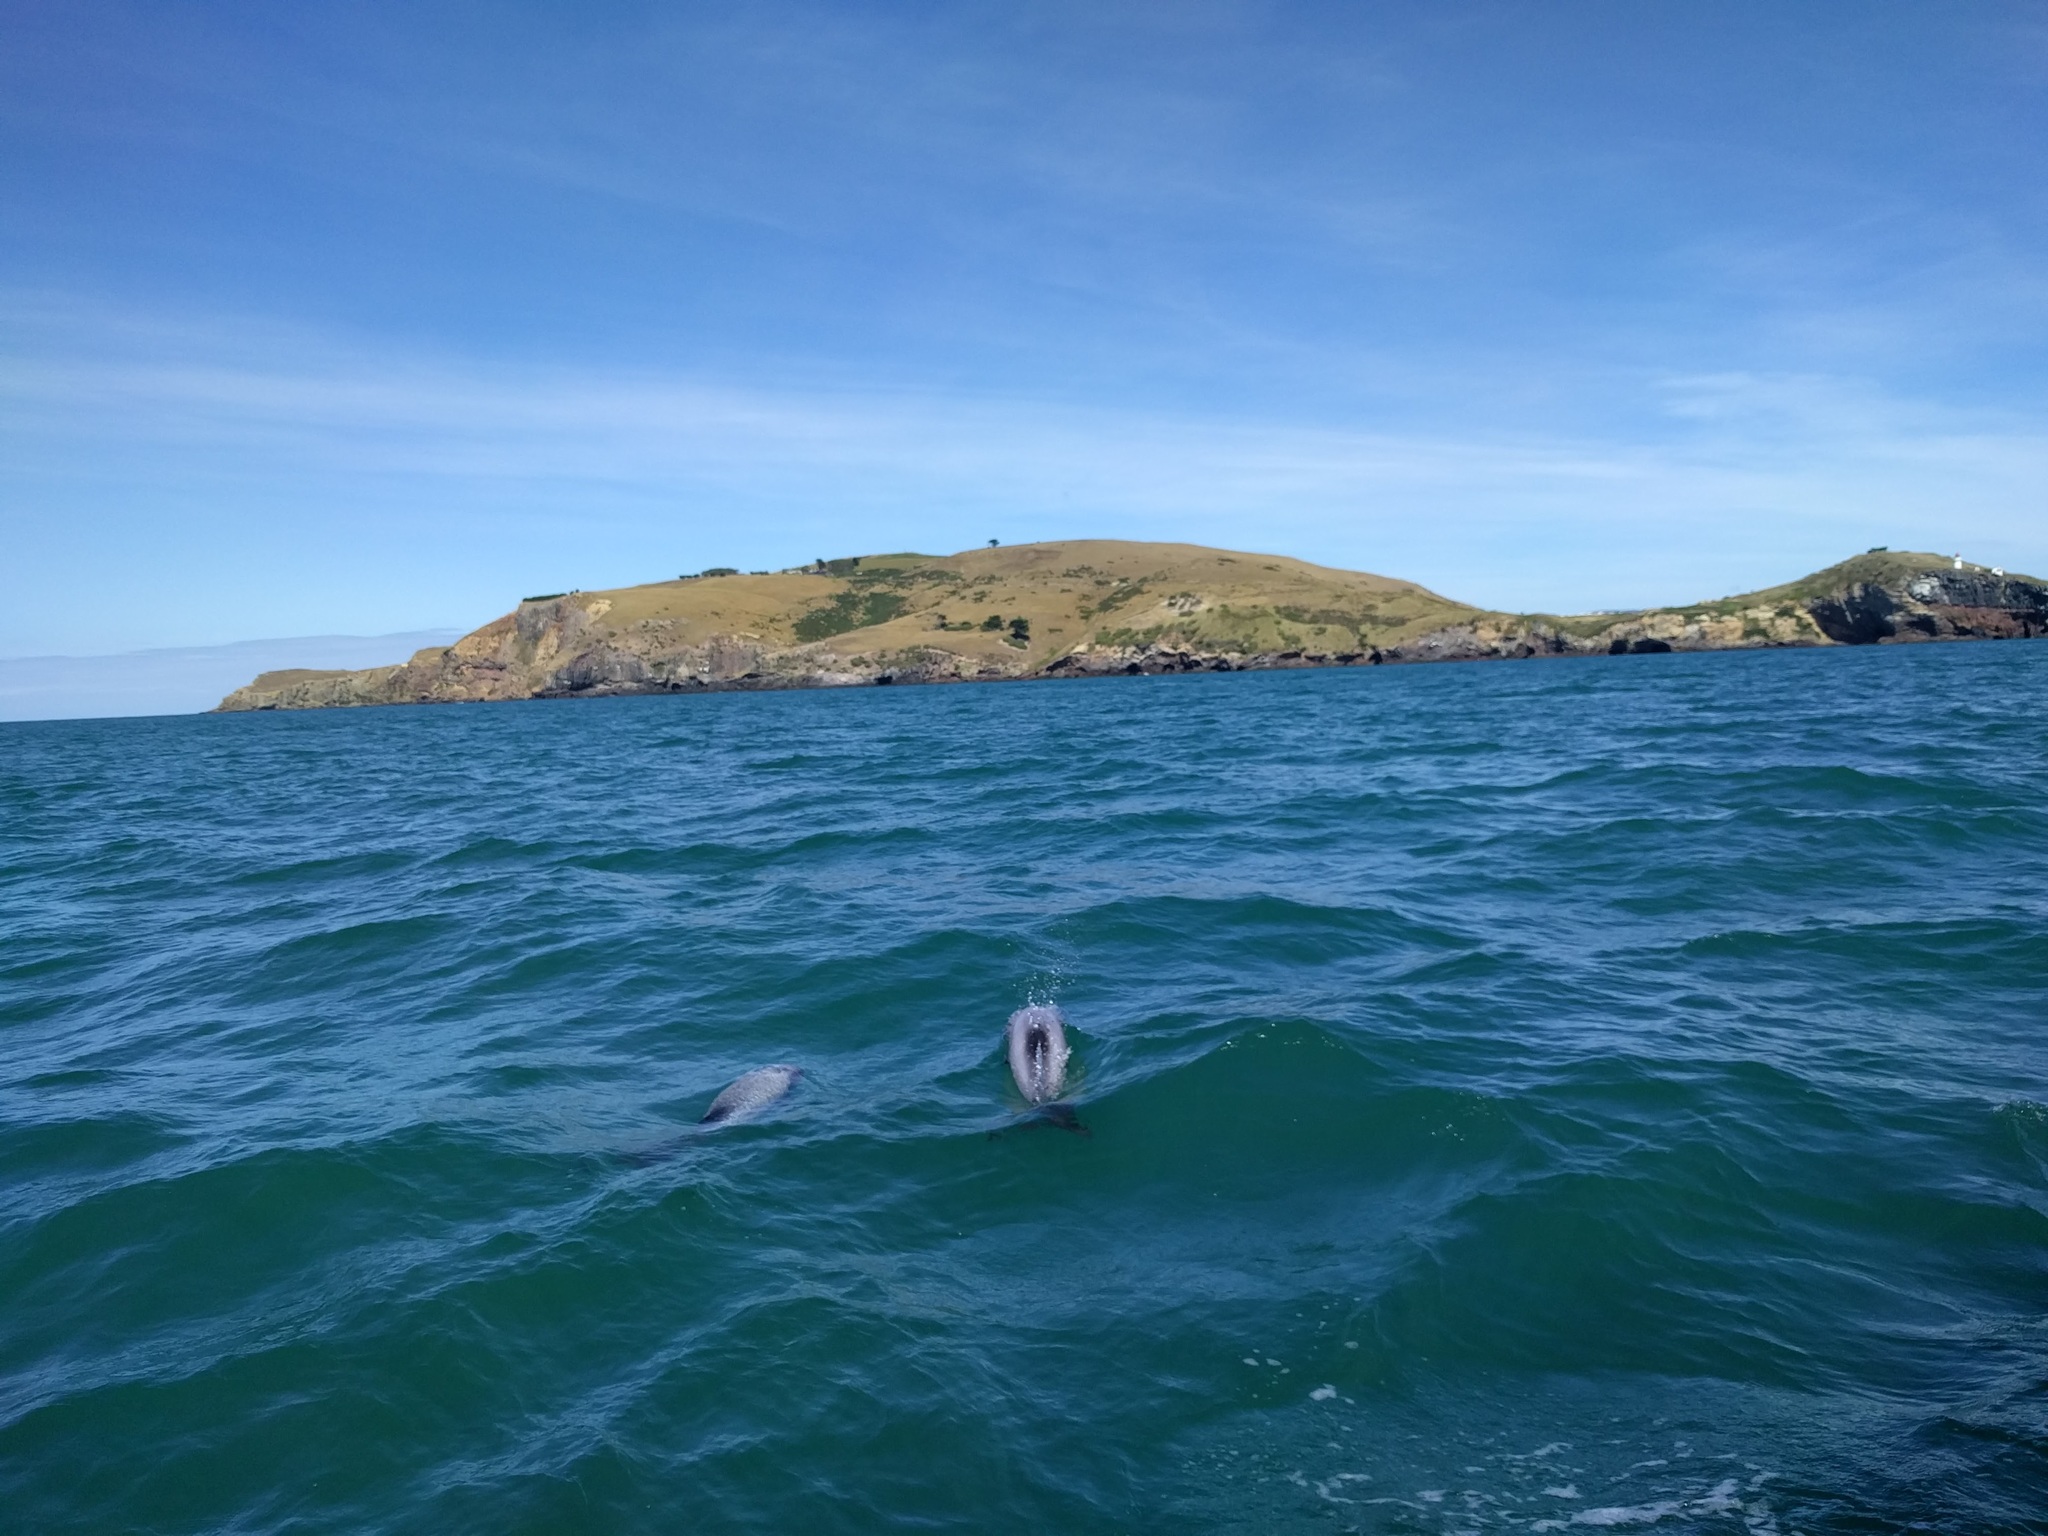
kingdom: Animalia
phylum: Chordata
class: Mammalia
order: Cetacea
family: Delphinidae
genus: Cephalorhynchus
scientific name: Cephalorhynchus hectori
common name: Hector's dolphin
